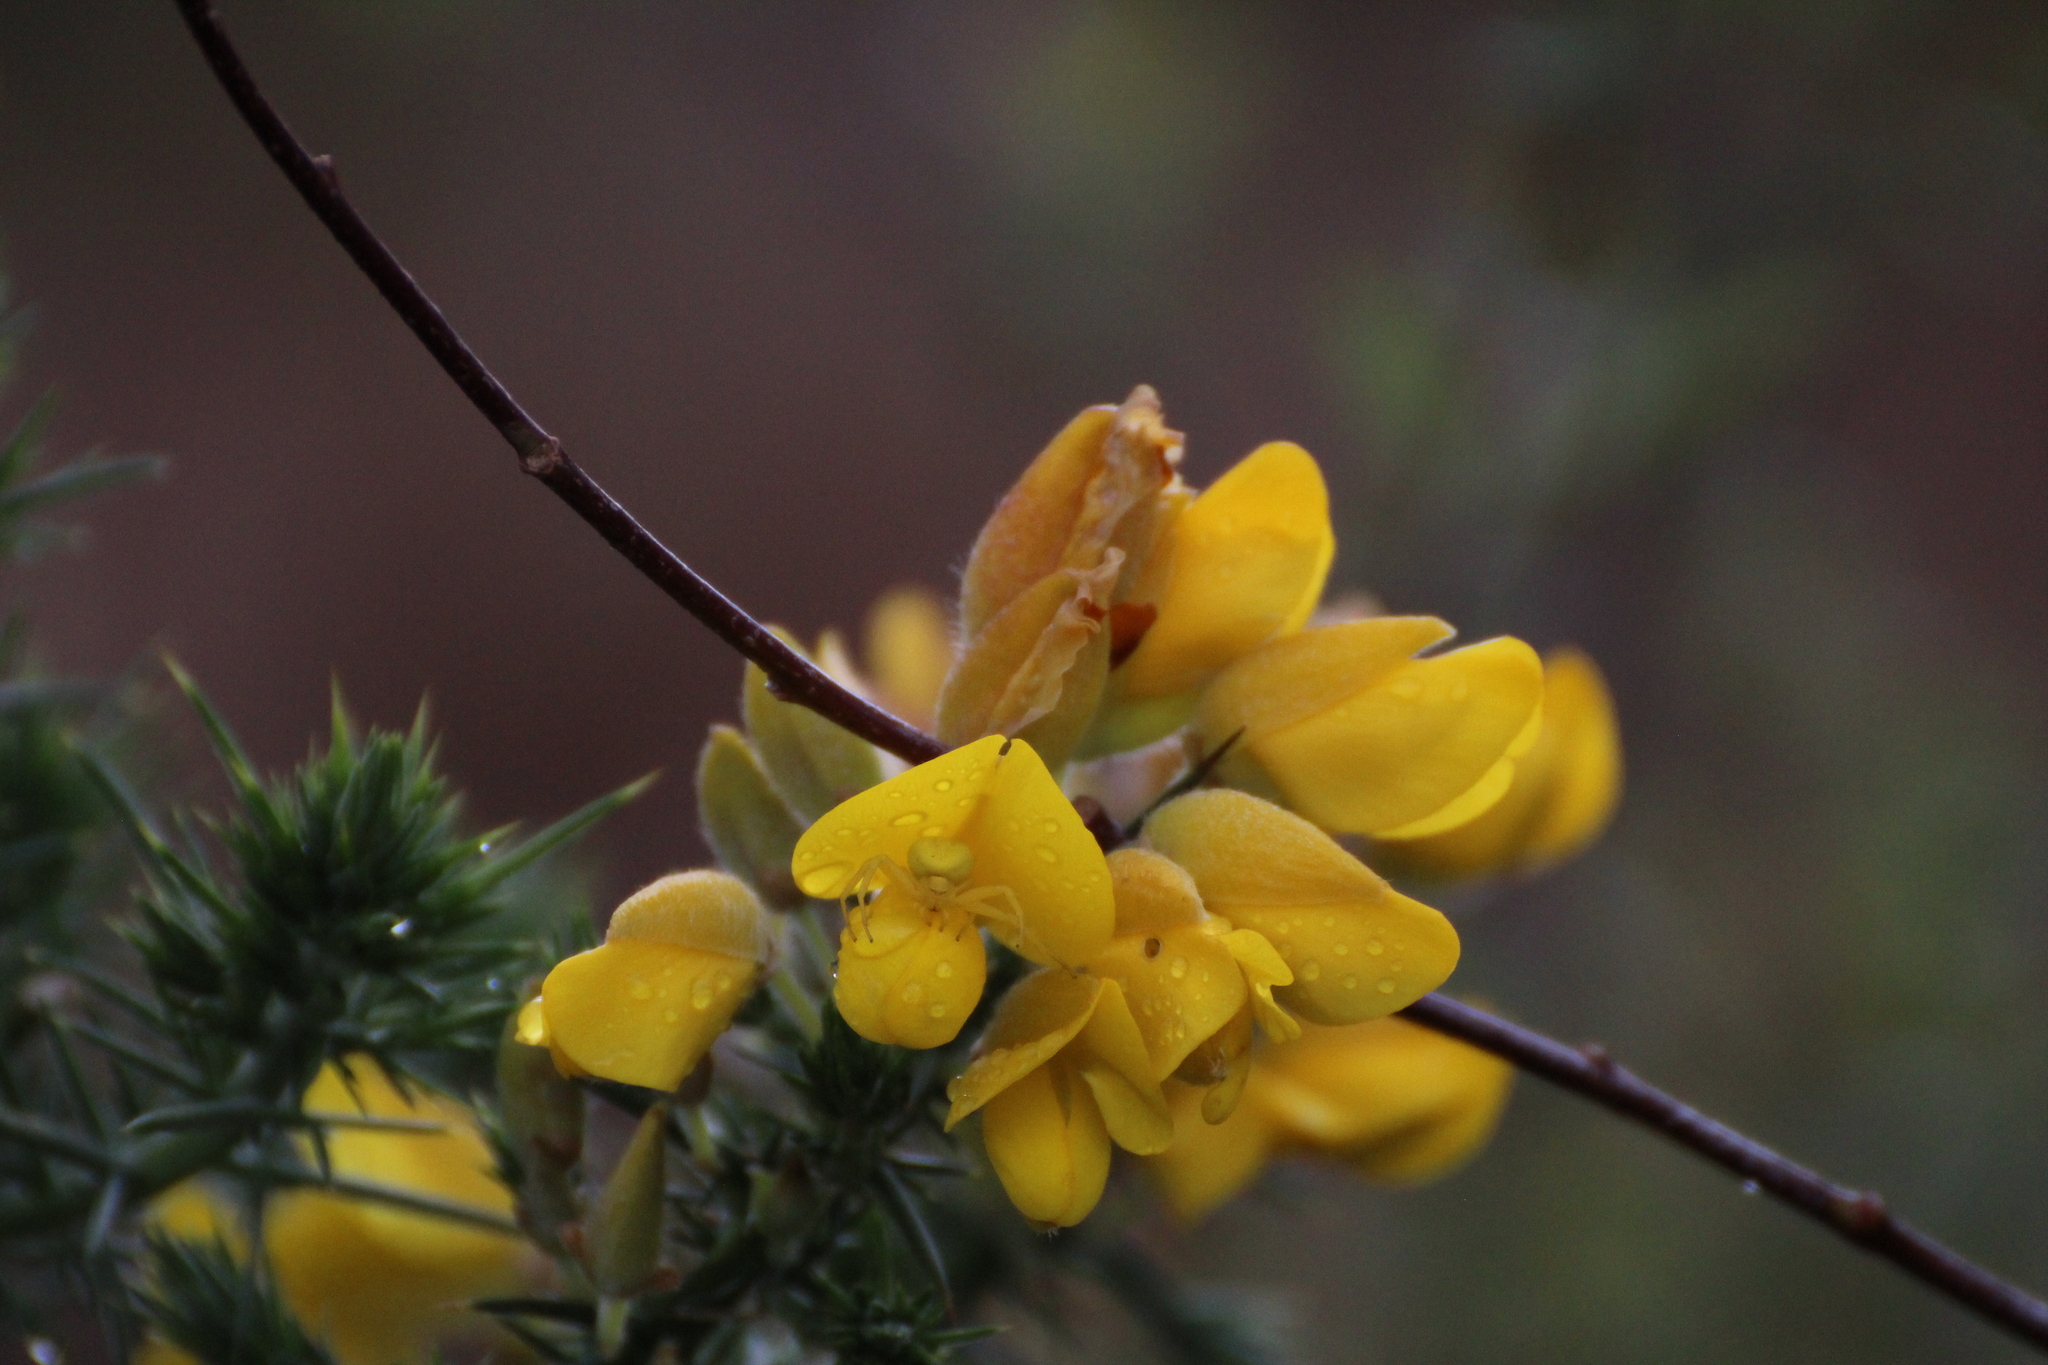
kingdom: Animalia
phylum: Arthropoda
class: Arachnida
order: Araneae
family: Thomisidae
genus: Misumena
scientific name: Misumena vatia
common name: Goldenrod crab spider
